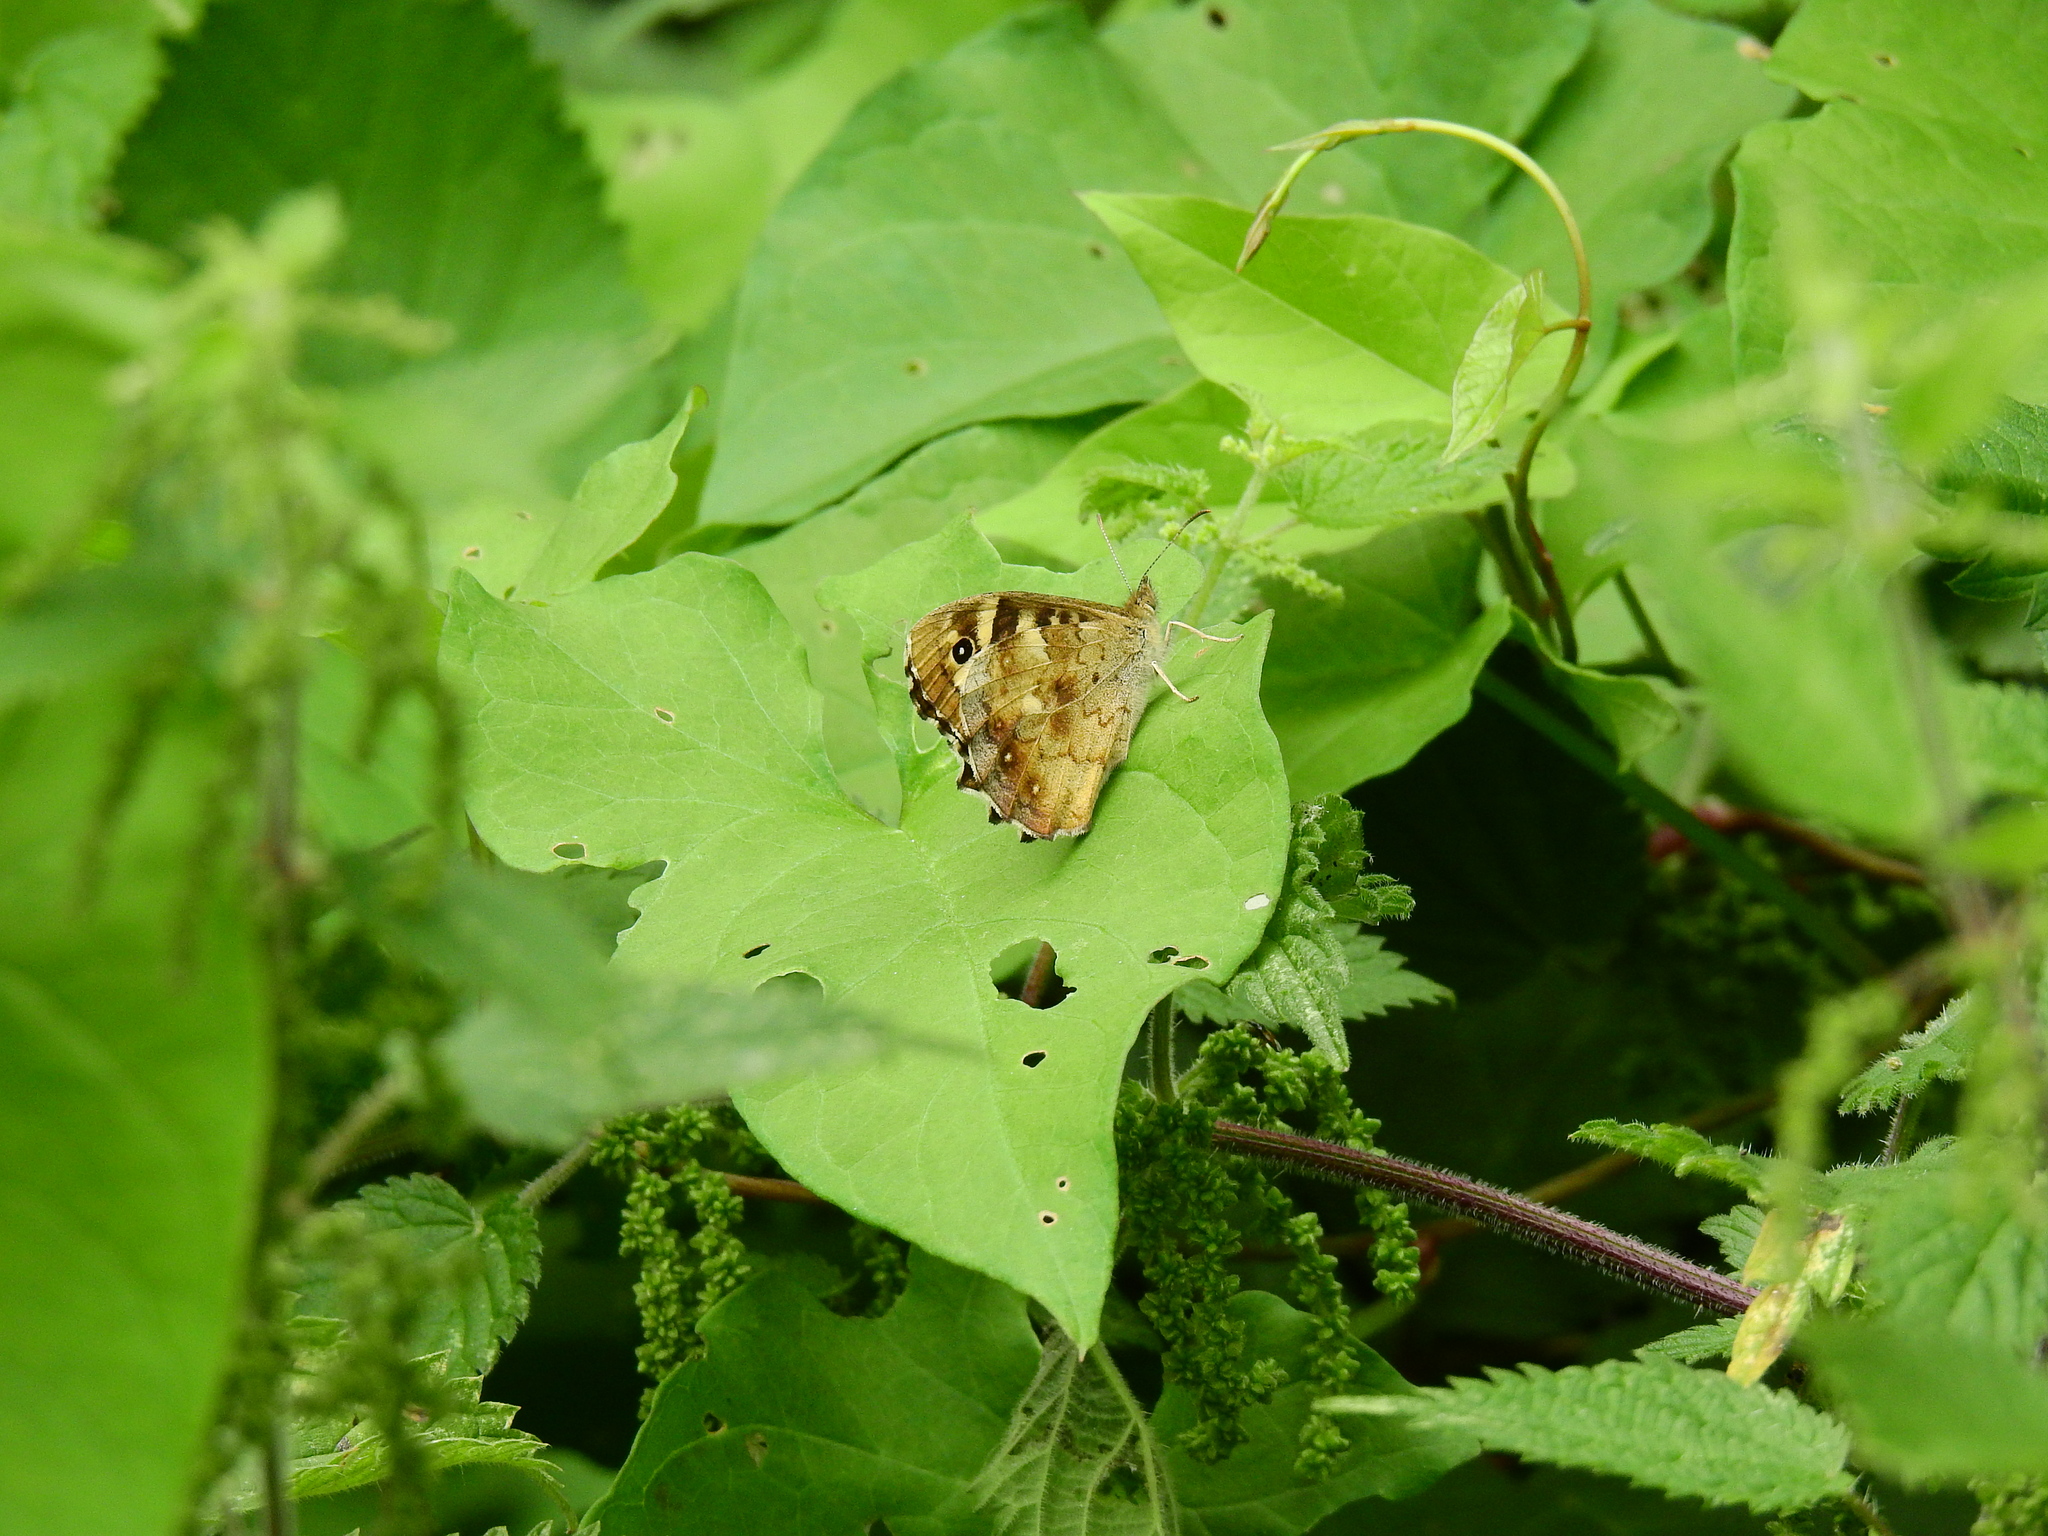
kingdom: Animalia
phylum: Arthropoda
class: Insecta
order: Lepidoptera
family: Nymphalidae
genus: Pararge
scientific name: Pararge aegeria
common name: Speckled wood
